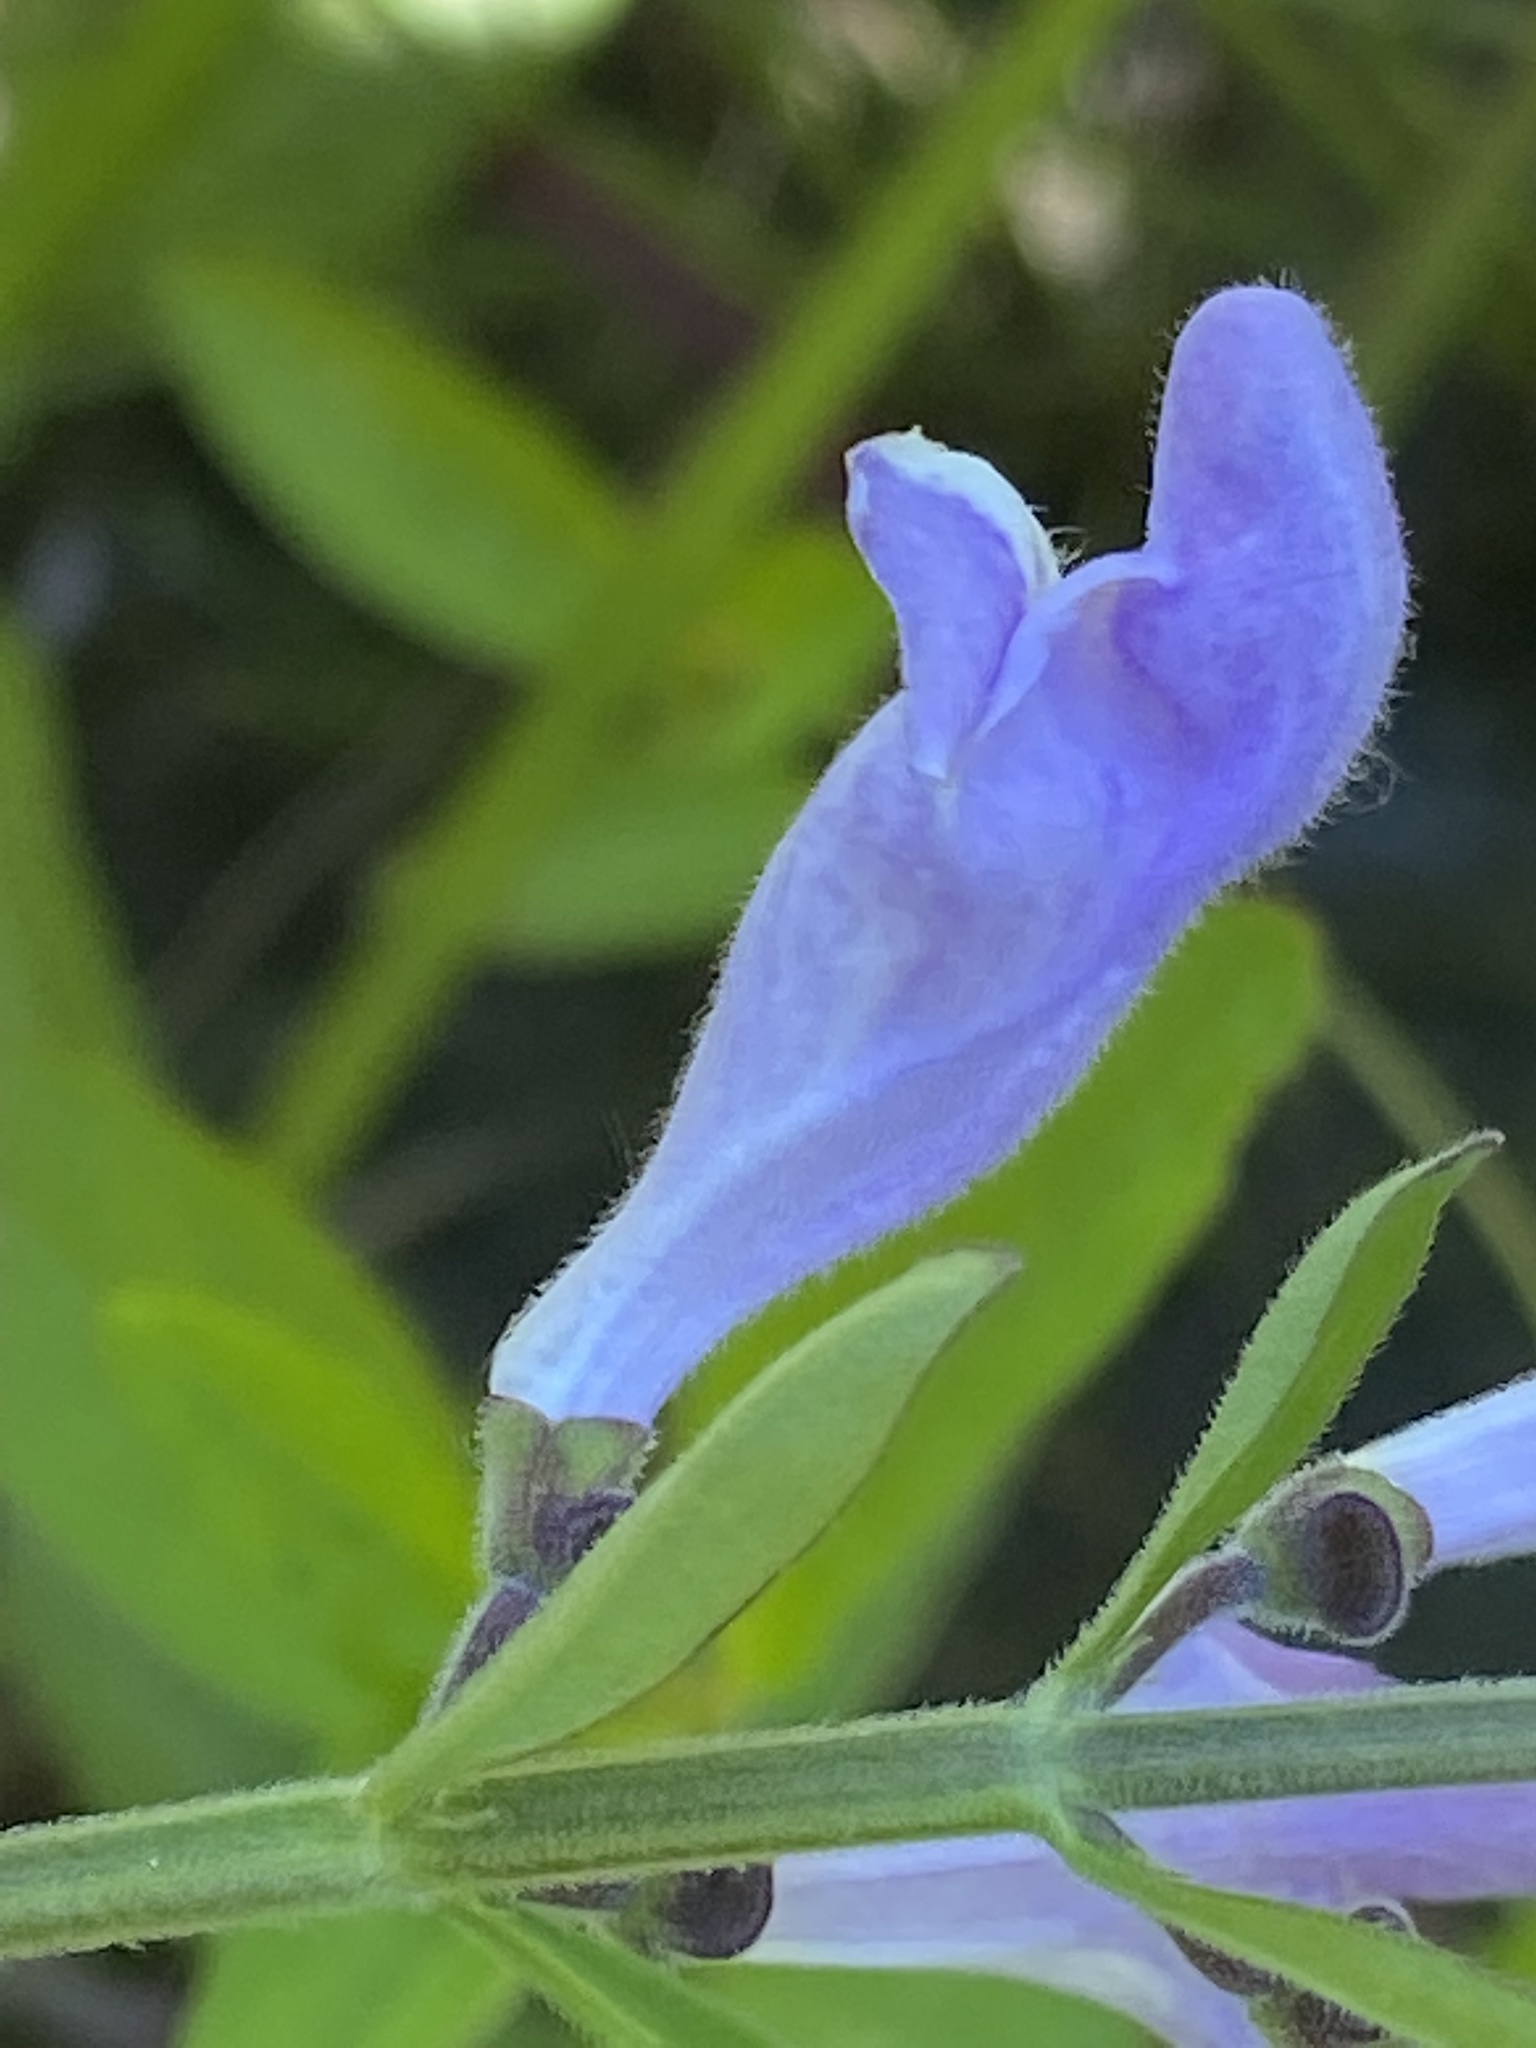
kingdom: Plantae
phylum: Tracheophyta
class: Magnoliopsida
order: Lamiales
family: Lamiaceae
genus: Scutellaria
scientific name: Scutellaria integrifolia
